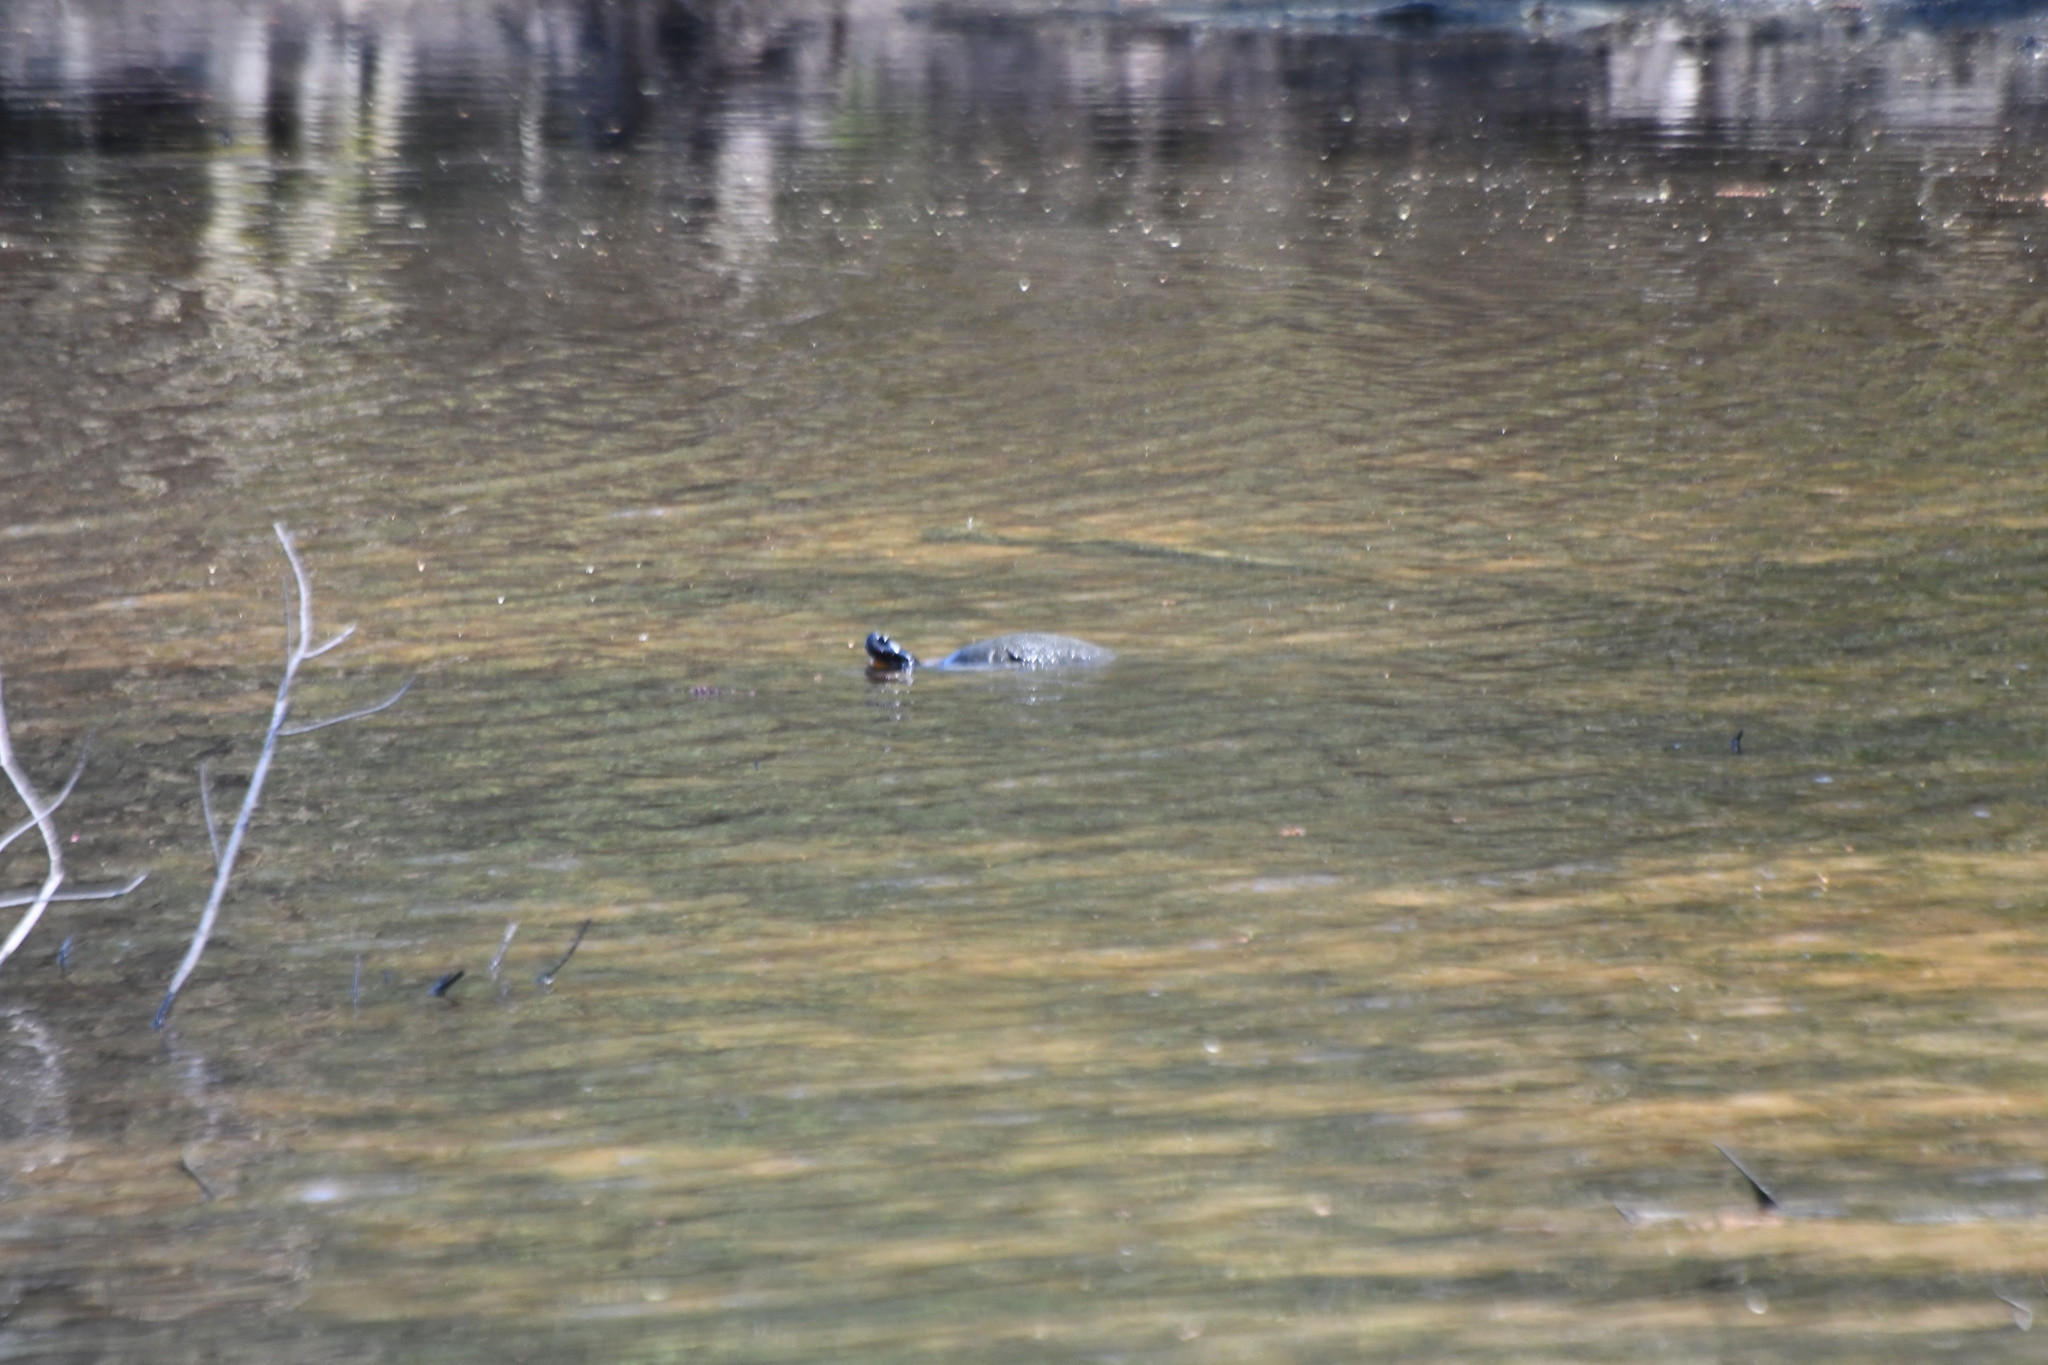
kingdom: Animalia
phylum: Chordata
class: Testudines
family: Emydidae
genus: Pseudemys
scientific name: Pseudemys rubriventris
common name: American red-bellied turtle
